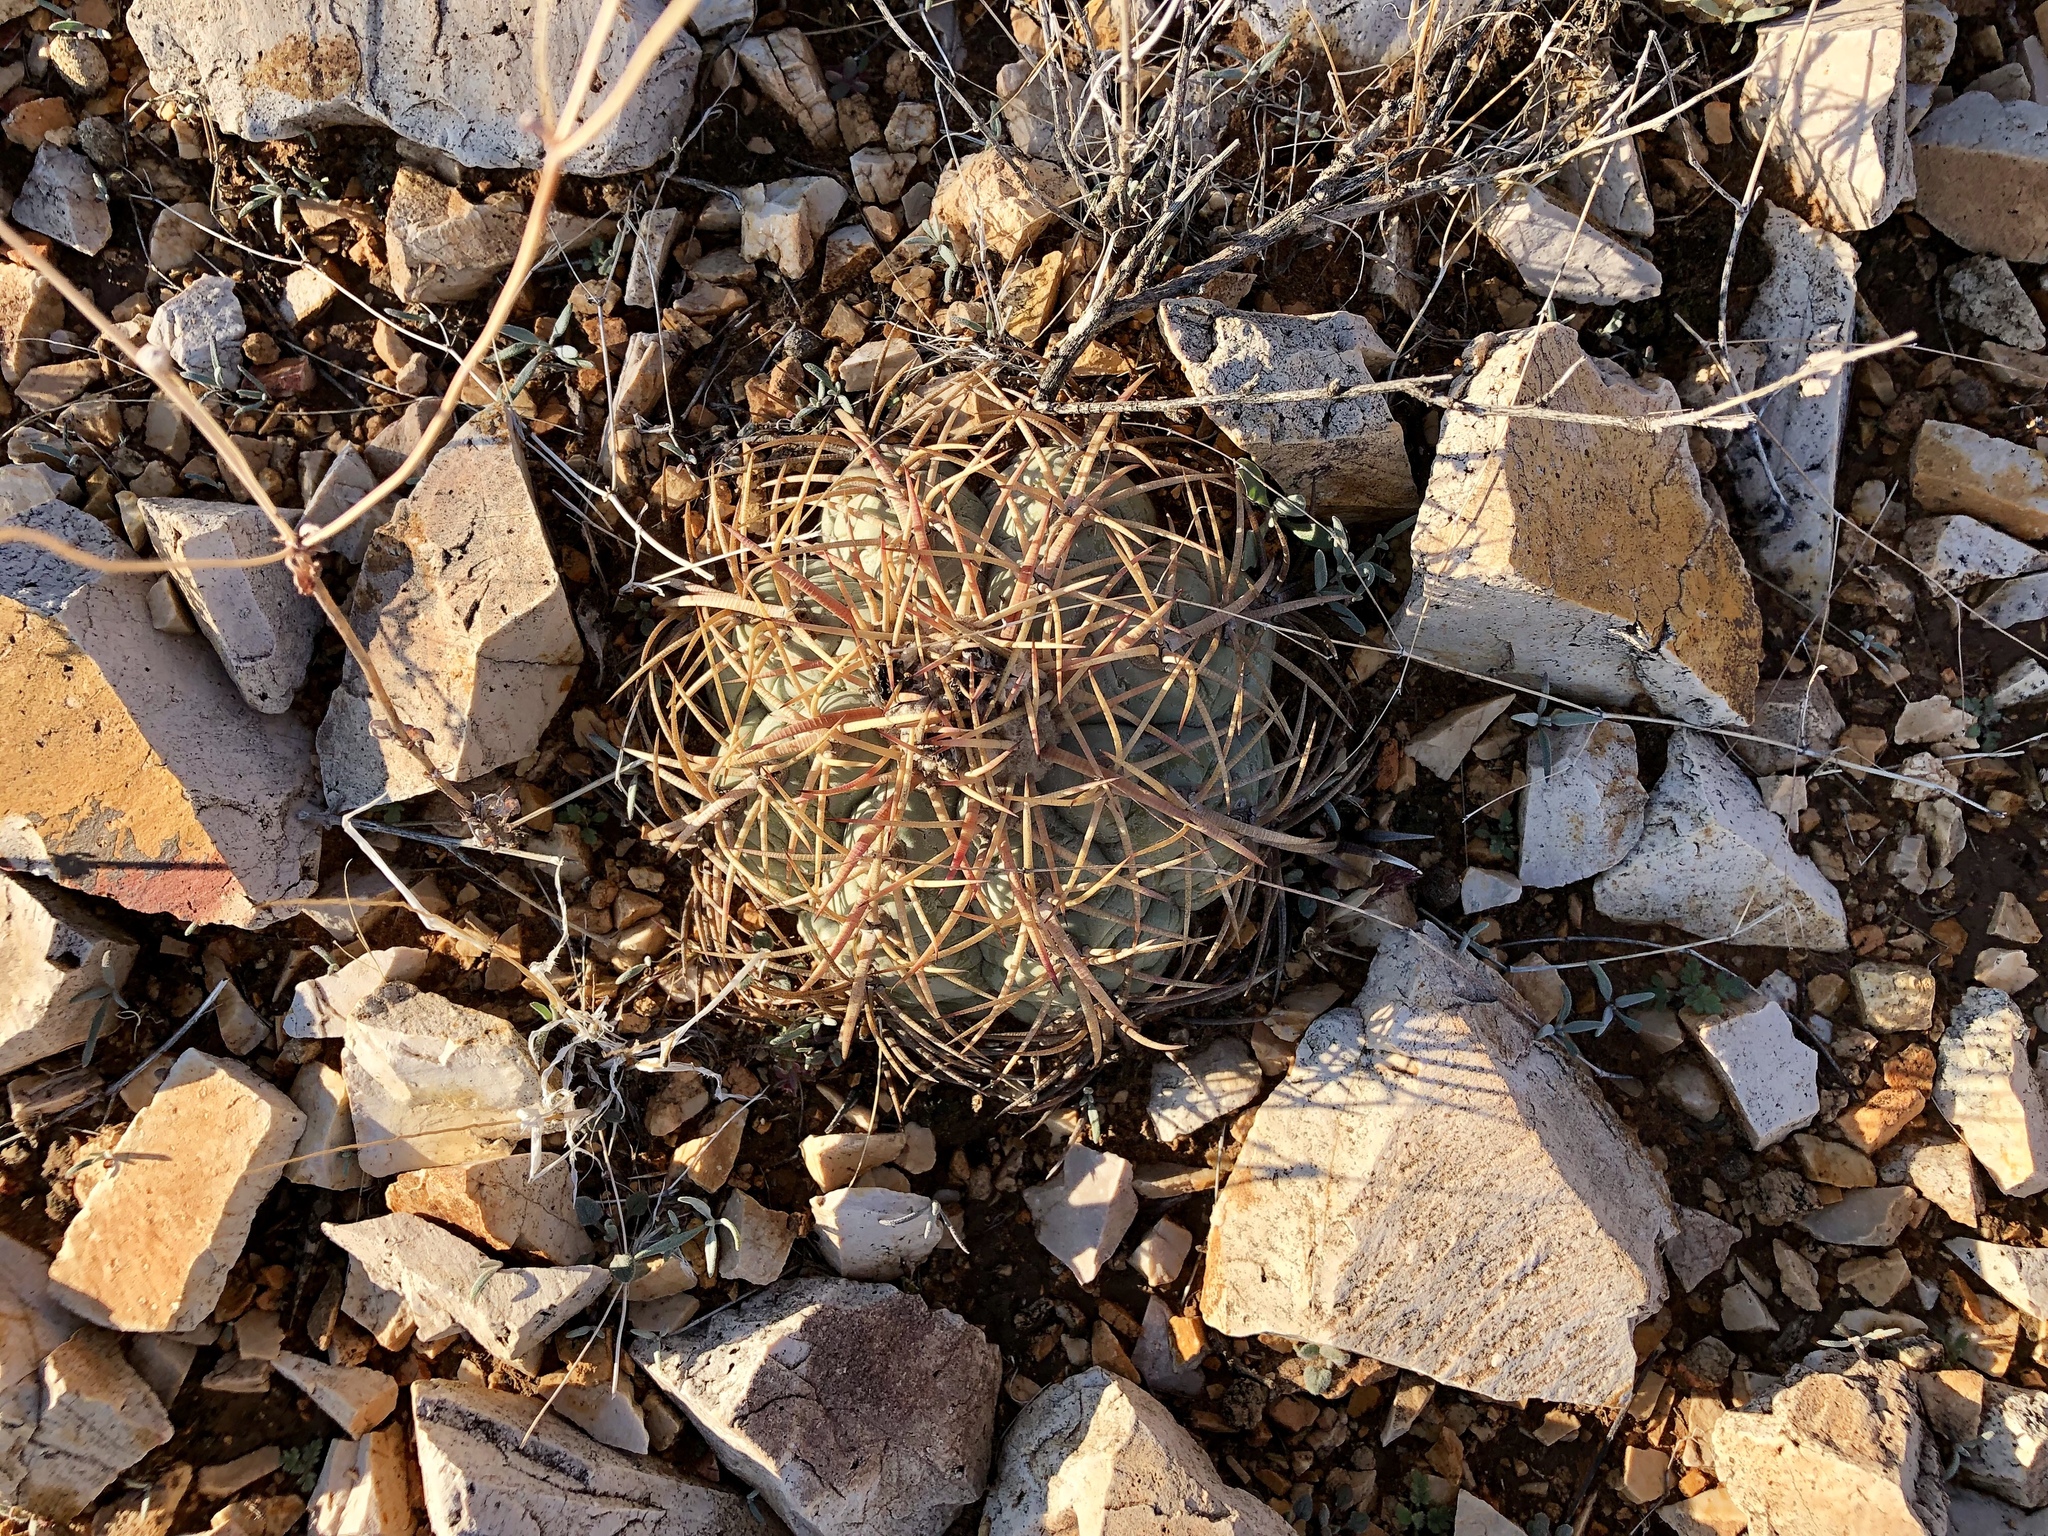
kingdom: Plantae
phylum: Tracheophyta
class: Magnoliopsida
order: Caryophyllales
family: Cactaceae
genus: Echinocactus
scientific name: Echinocactus horizonthalonius
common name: Devilshead
